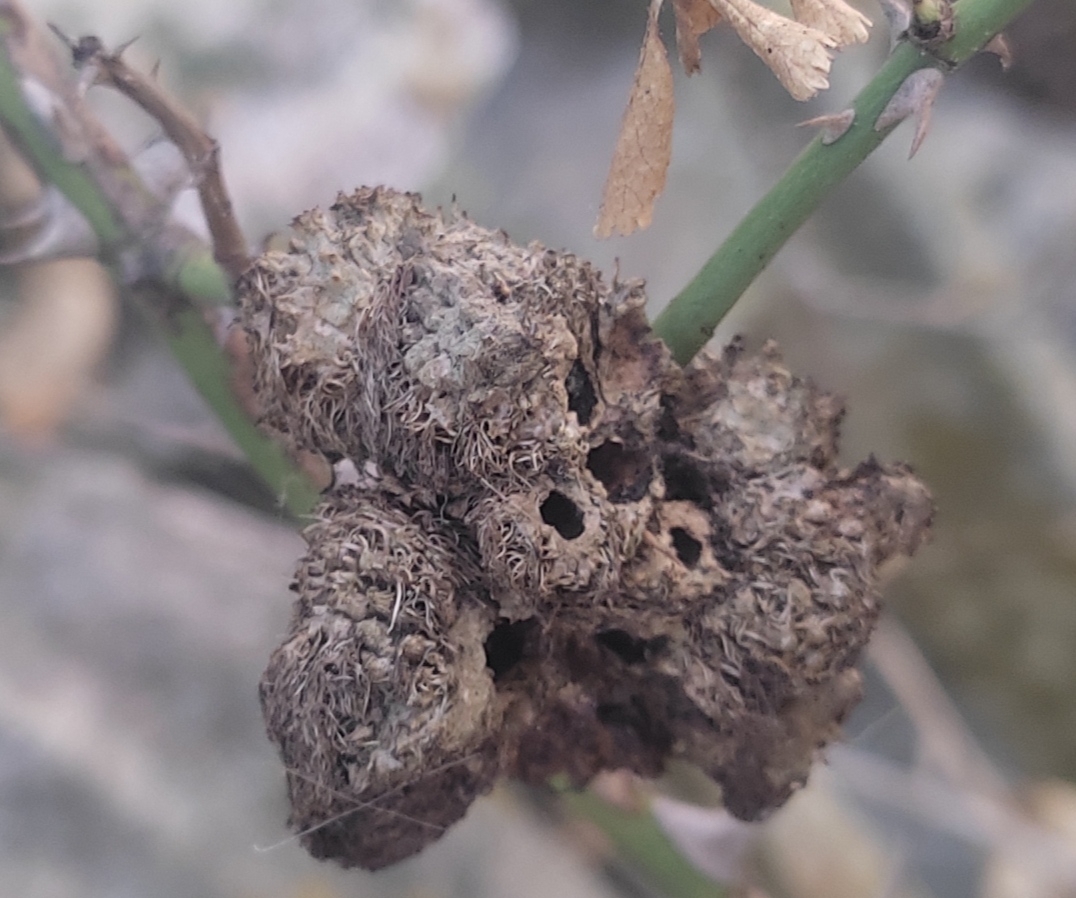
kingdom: Animalia
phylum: Arthropoda
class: Insecta
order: Hymenoptera
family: Cynipidae
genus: Diplolepis
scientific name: Diplolepis rosae
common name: Bedeguar gall
